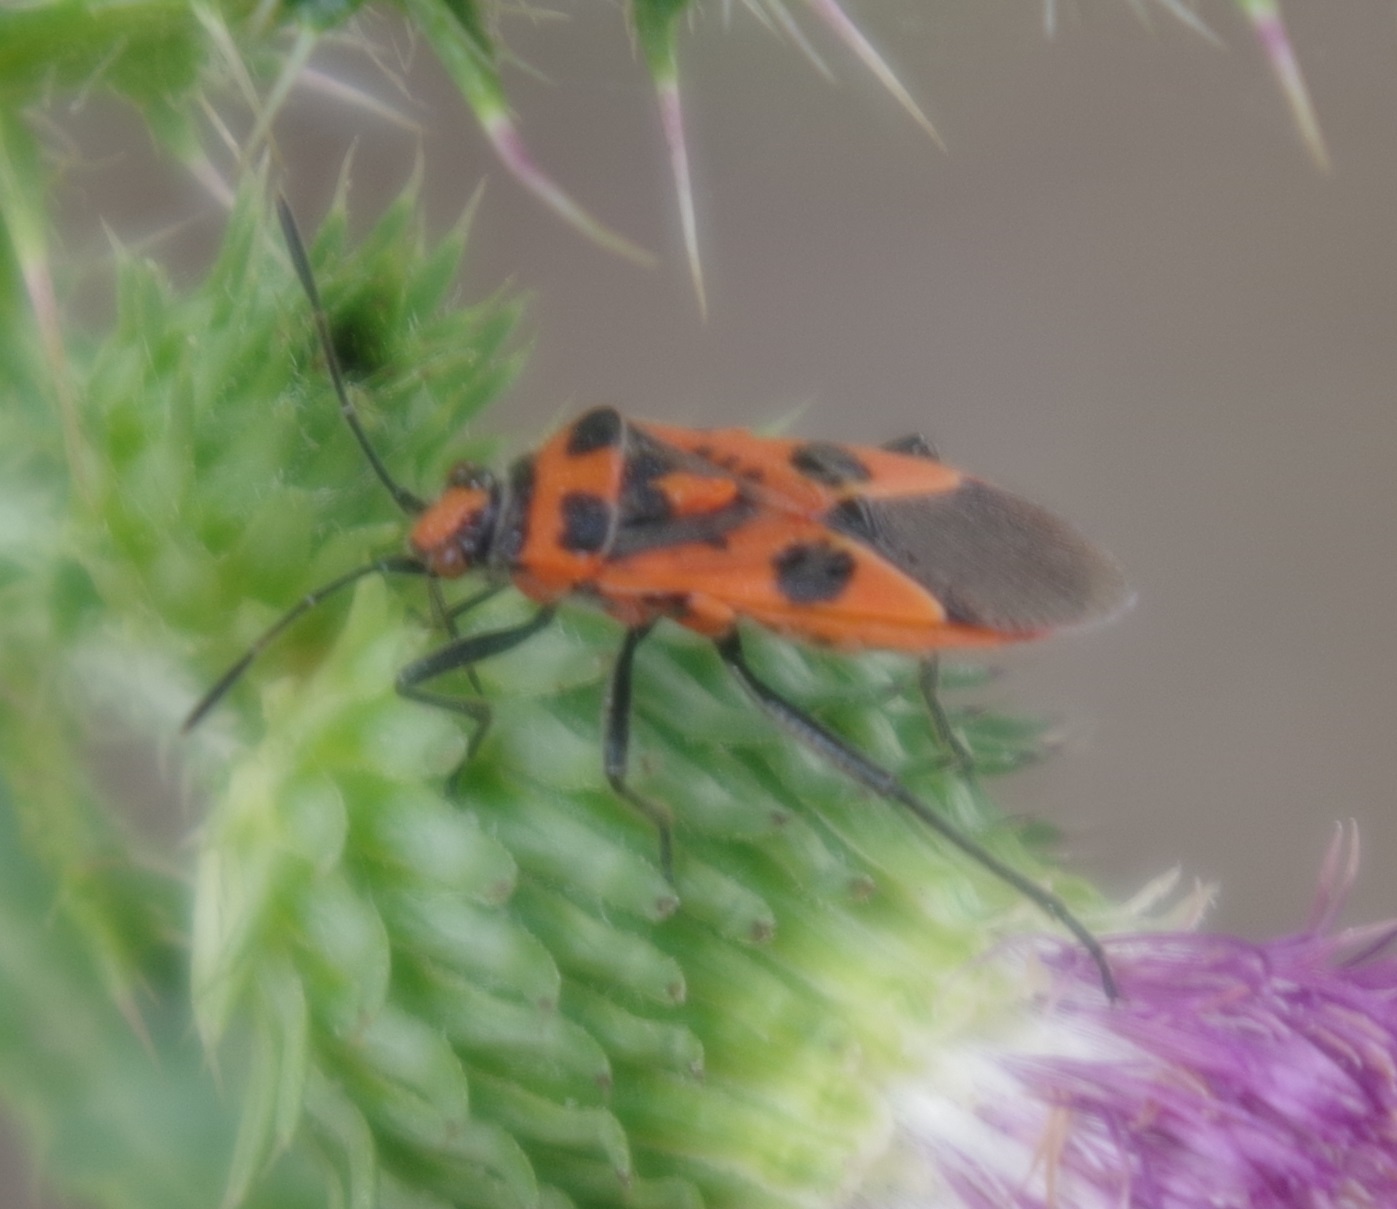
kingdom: Animalia
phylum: Arthropoda
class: Insecta
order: Hemiptera
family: Rhopalidae
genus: Corizus
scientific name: Corizus hyoscyami
